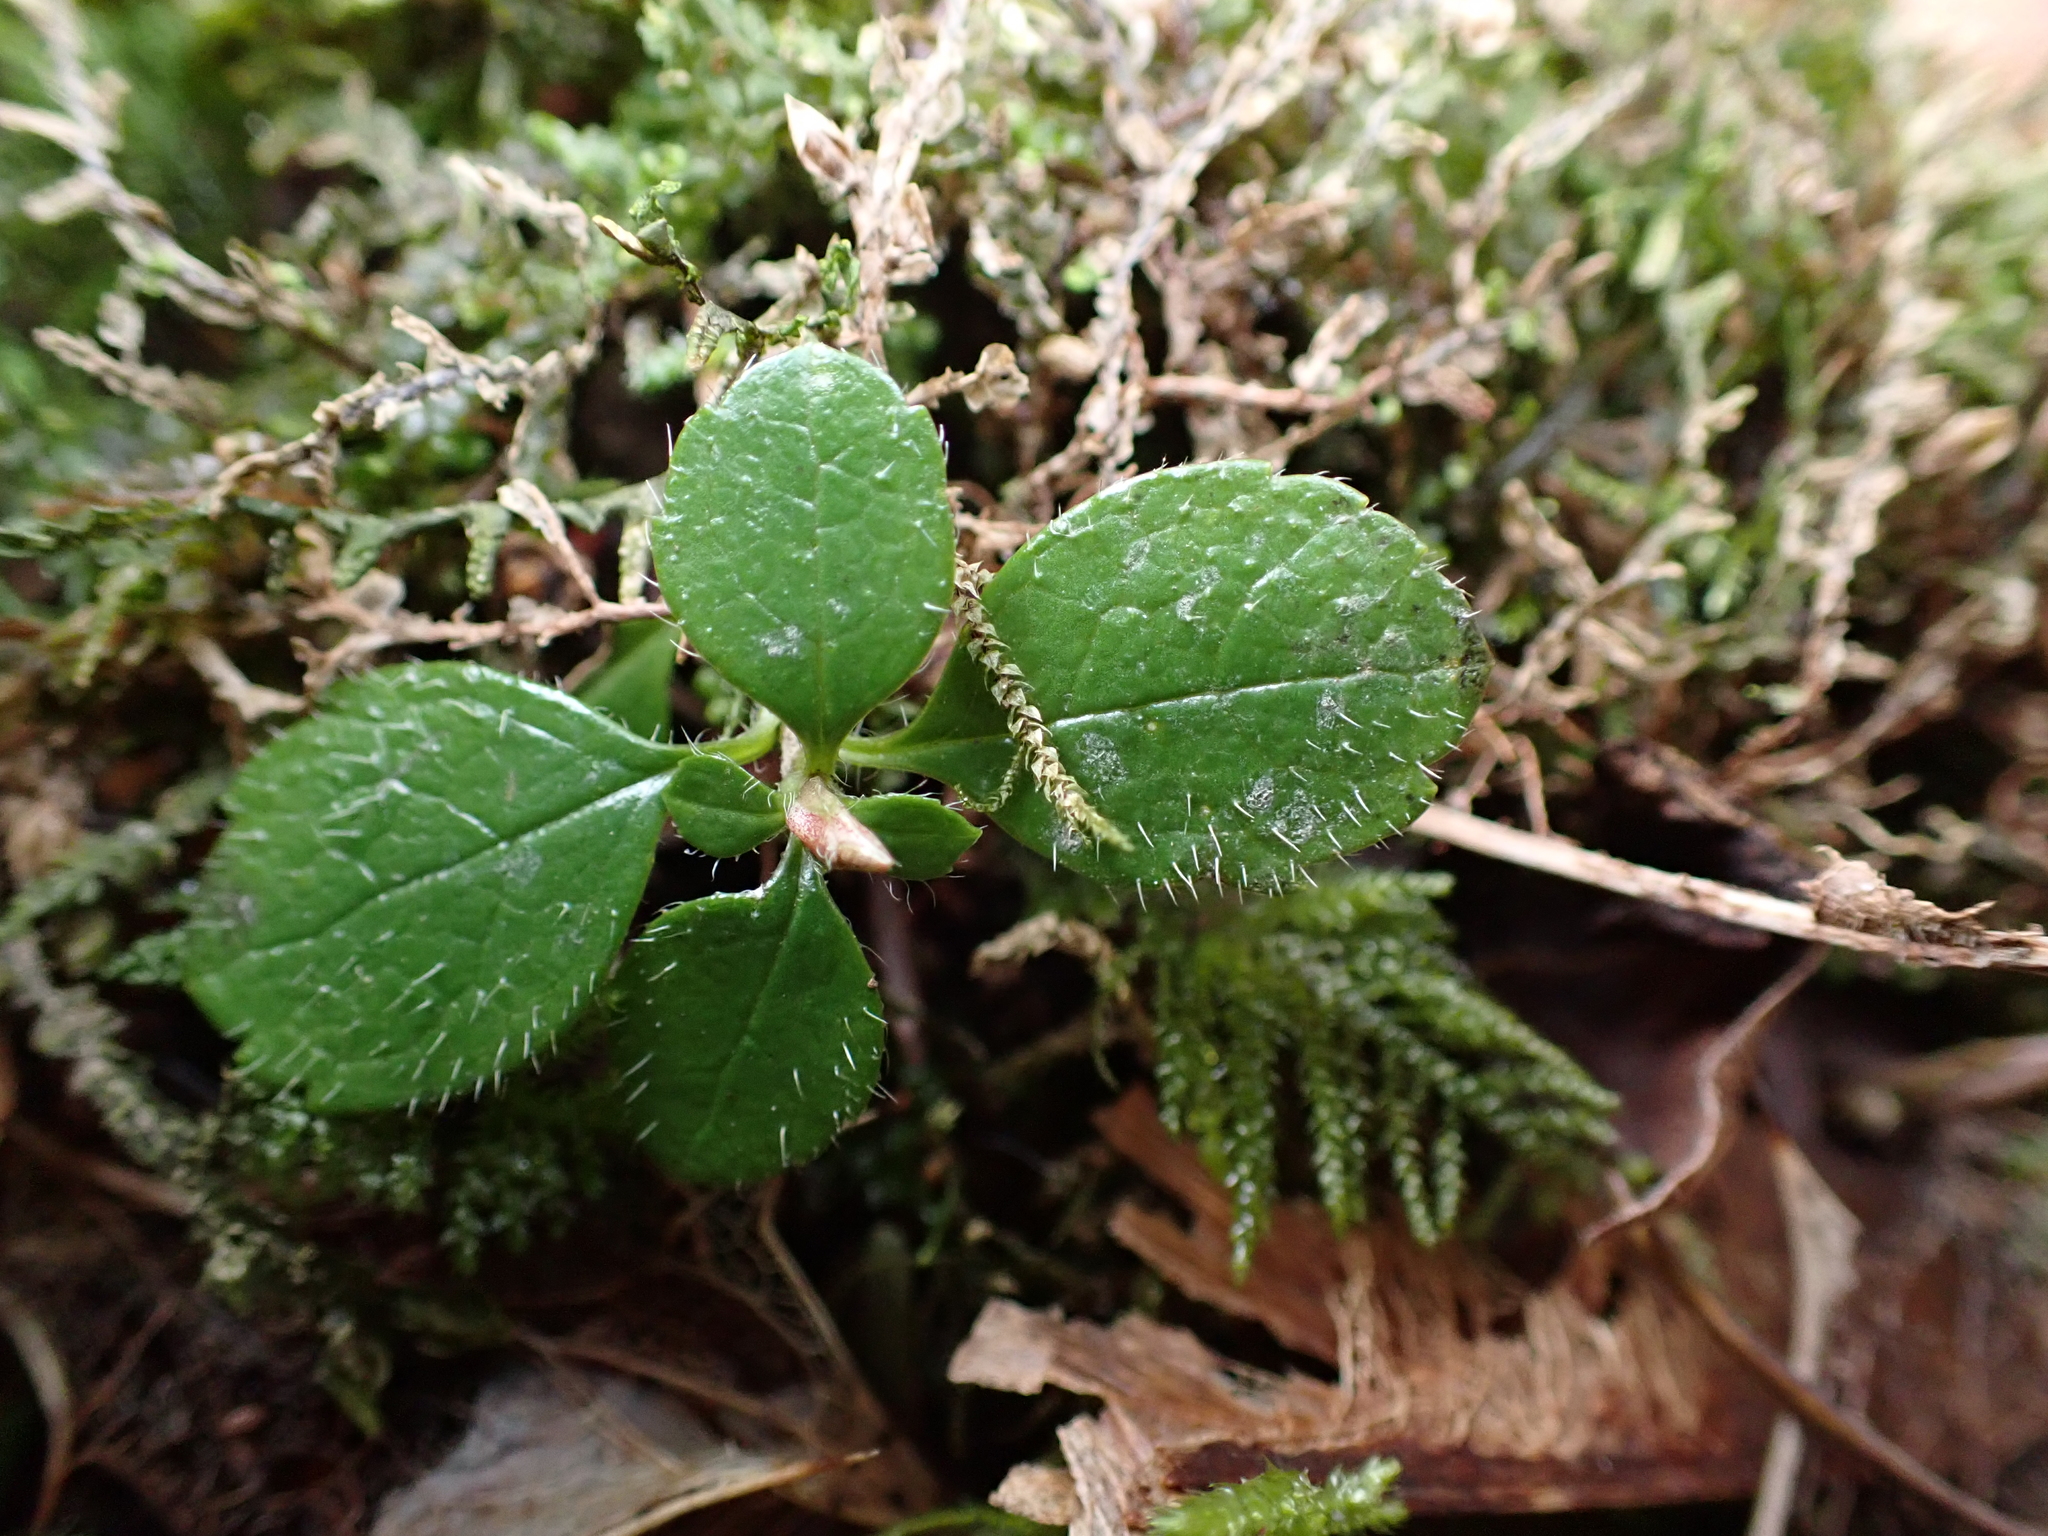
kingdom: Plantae
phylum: Tracheophyta
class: Magnoliopsida
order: Dipsacales
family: Caprifoliaceae
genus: Linnaea
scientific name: Linnaea borealis
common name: Twinflower
